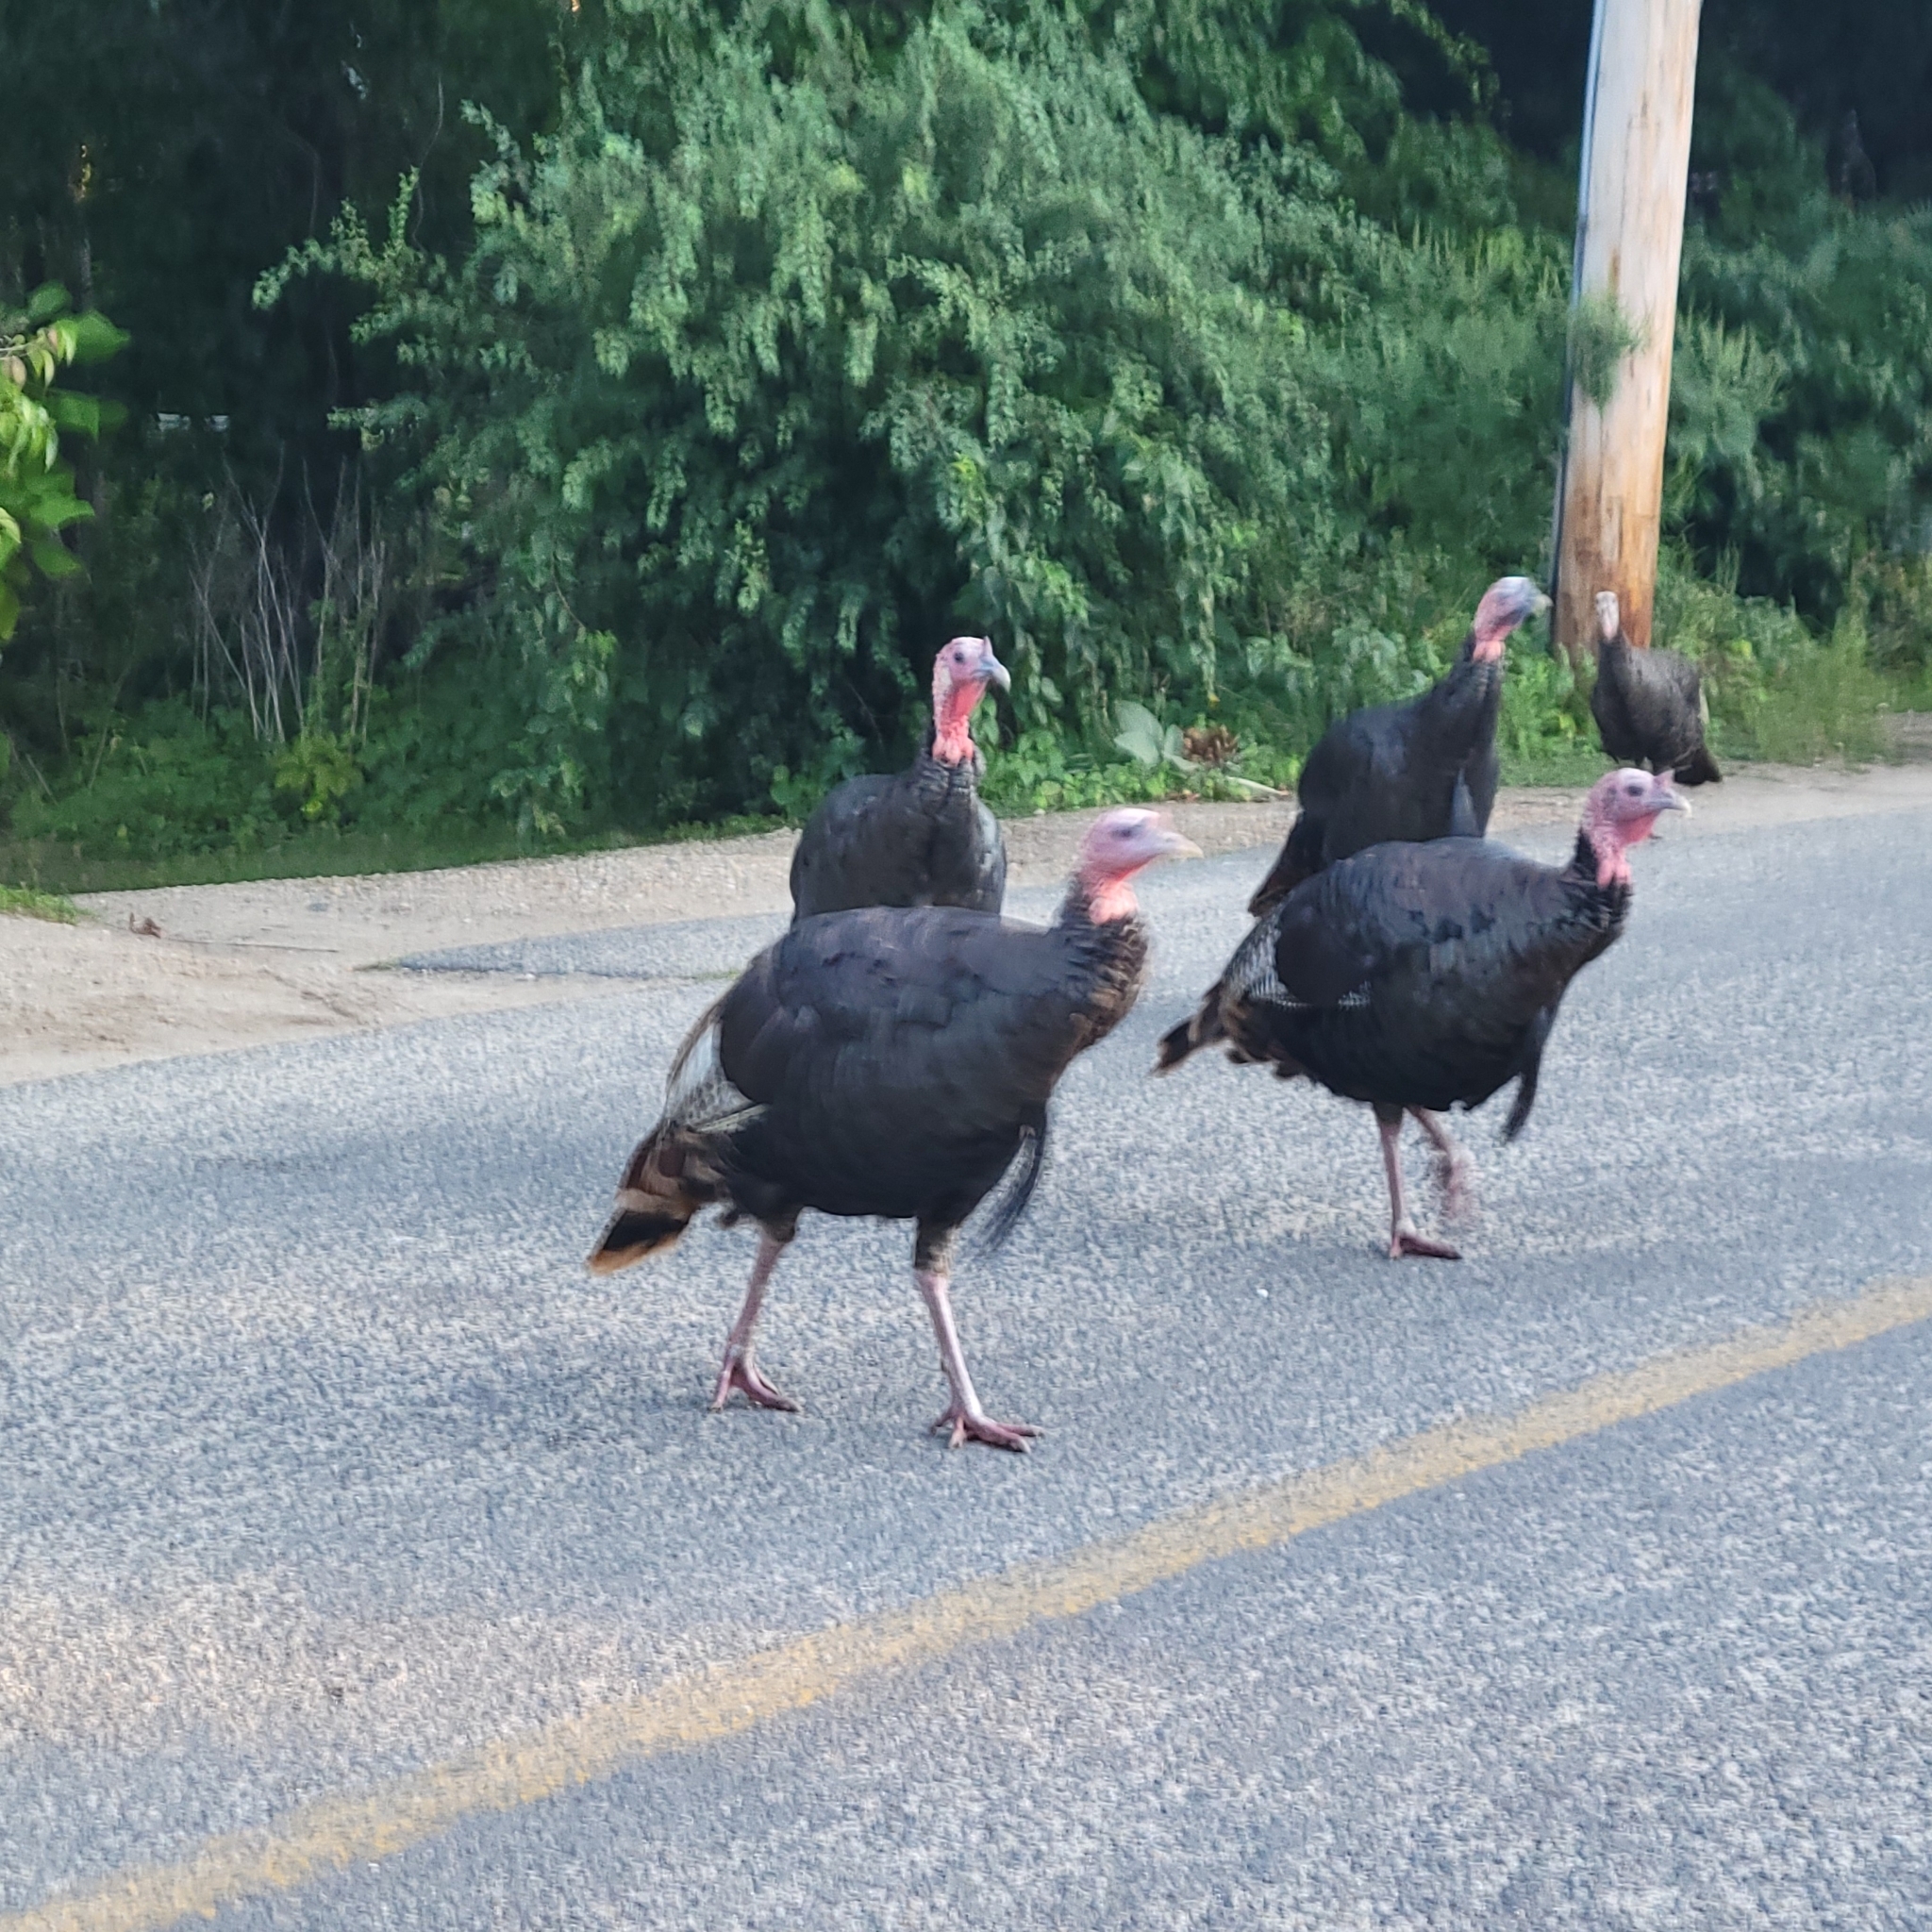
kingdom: Animalia
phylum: Chordata
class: Aves
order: Galliformes
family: Phasianidae
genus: Meleagris
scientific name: Meleagris gallopavo
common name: Wild turkey
